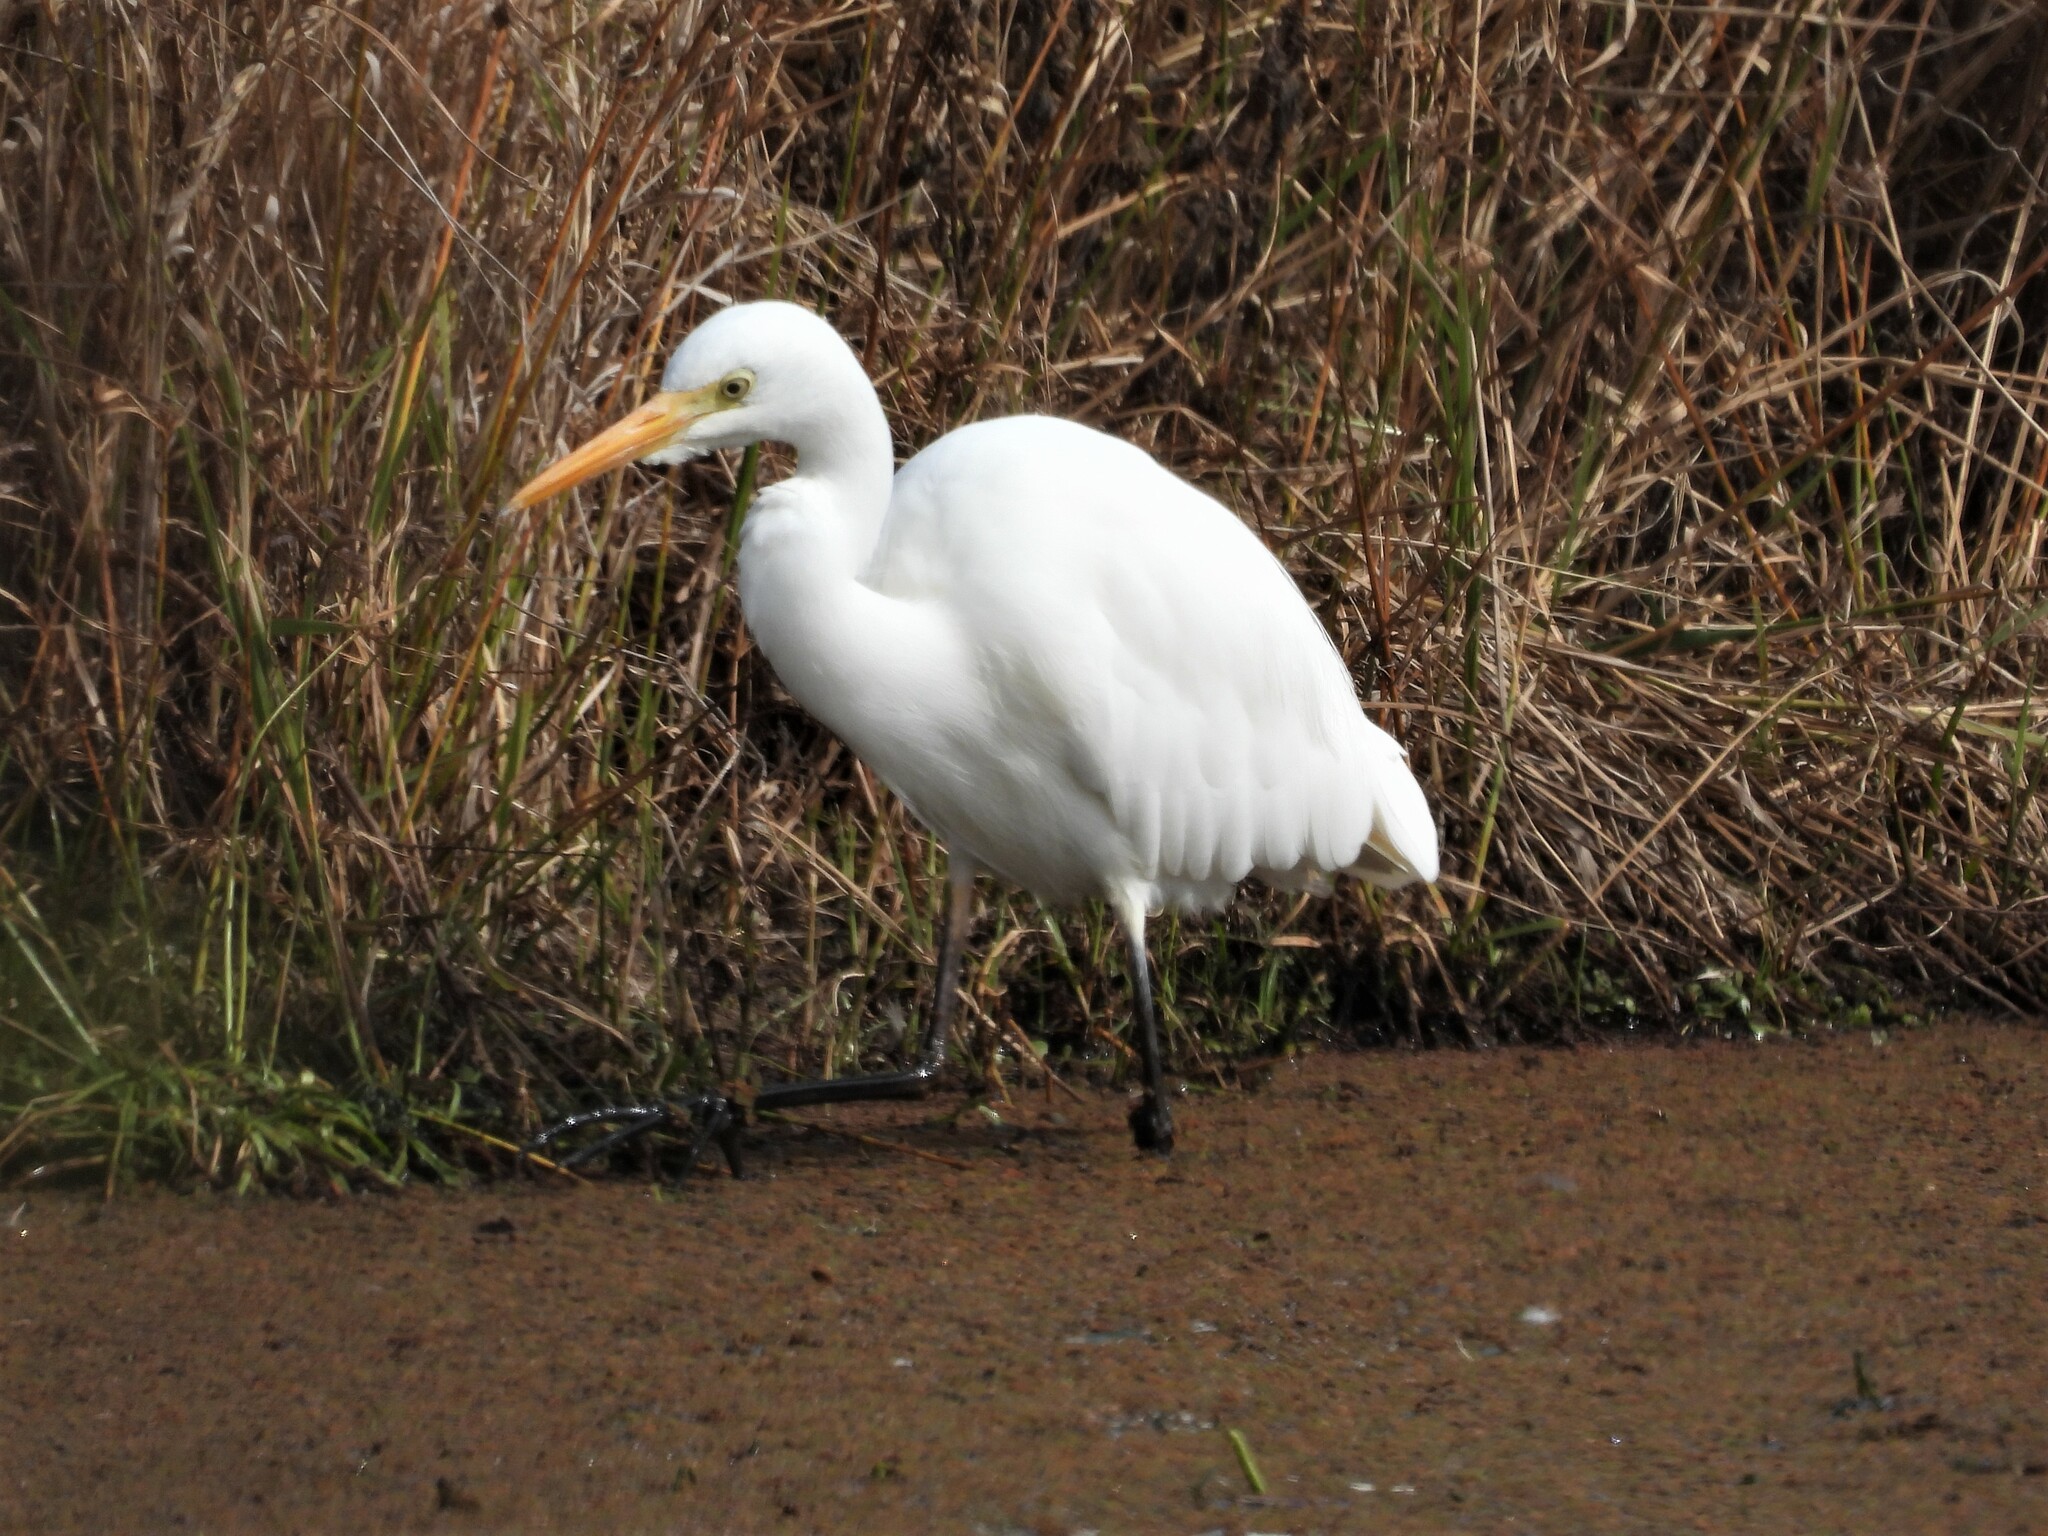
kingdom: Animalia
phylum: Chordata
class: Aves
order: Pelecaniformes
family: Ardeidae
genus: Egretta
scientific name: Egretta intermedia
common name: Intermediate egret
